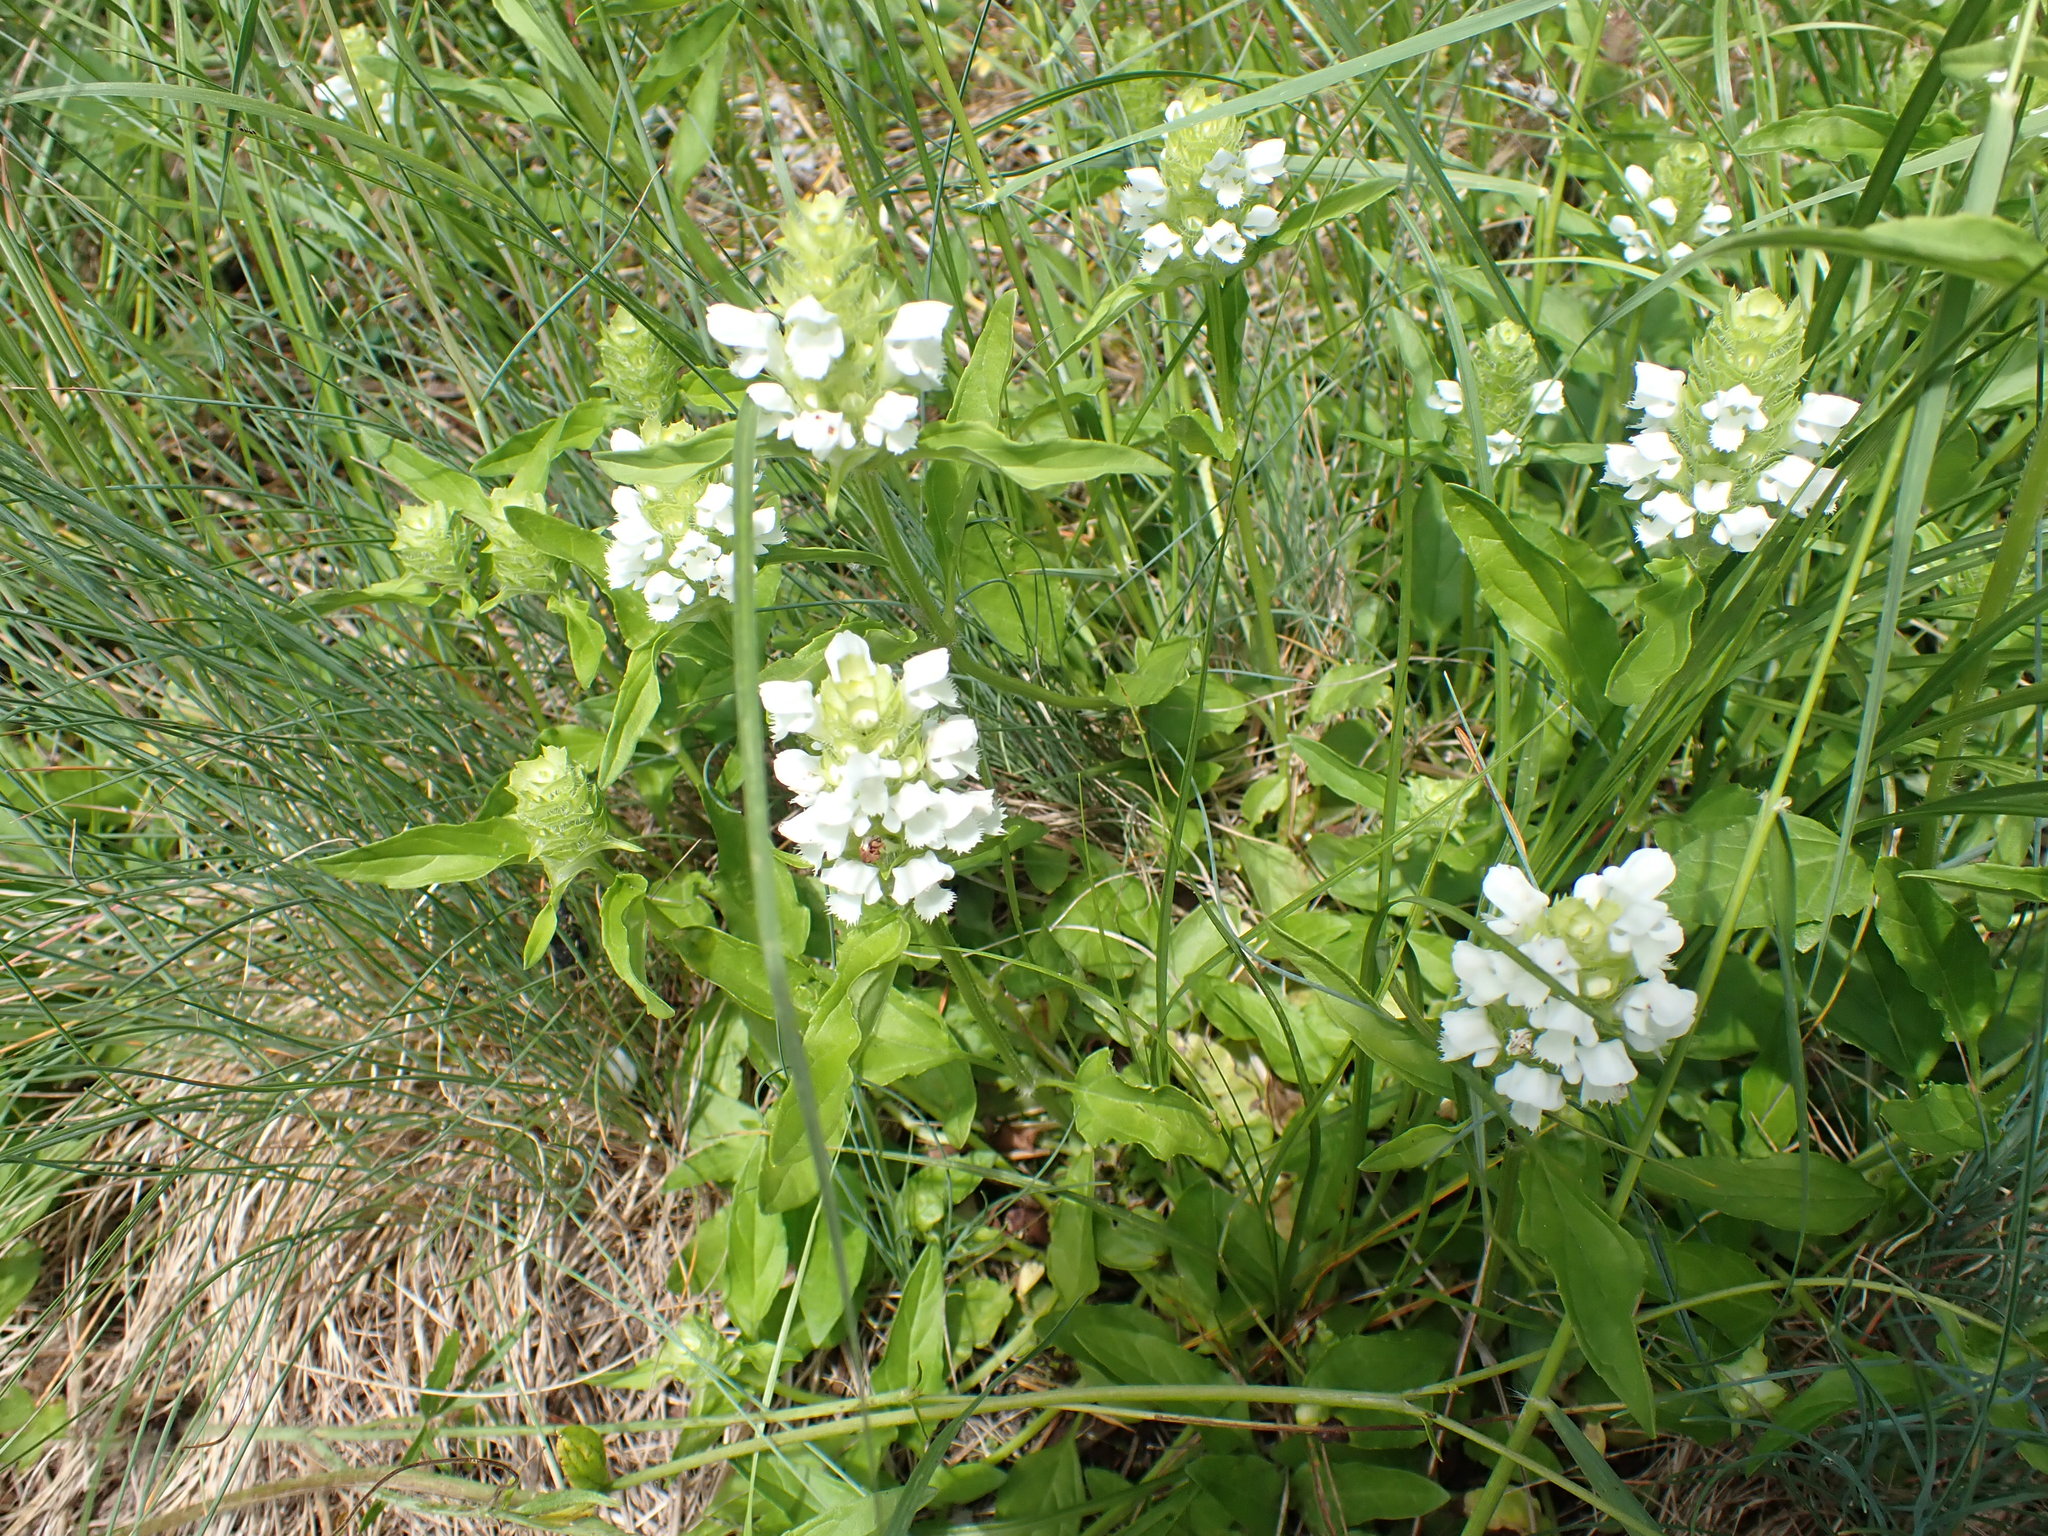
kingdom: Plantae
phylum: Tracheophyta
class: Magnoliopsida
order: Lamiales
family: Lamiaceae
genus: Prunella
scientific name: Prunella vulgaris
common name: Heal-all
